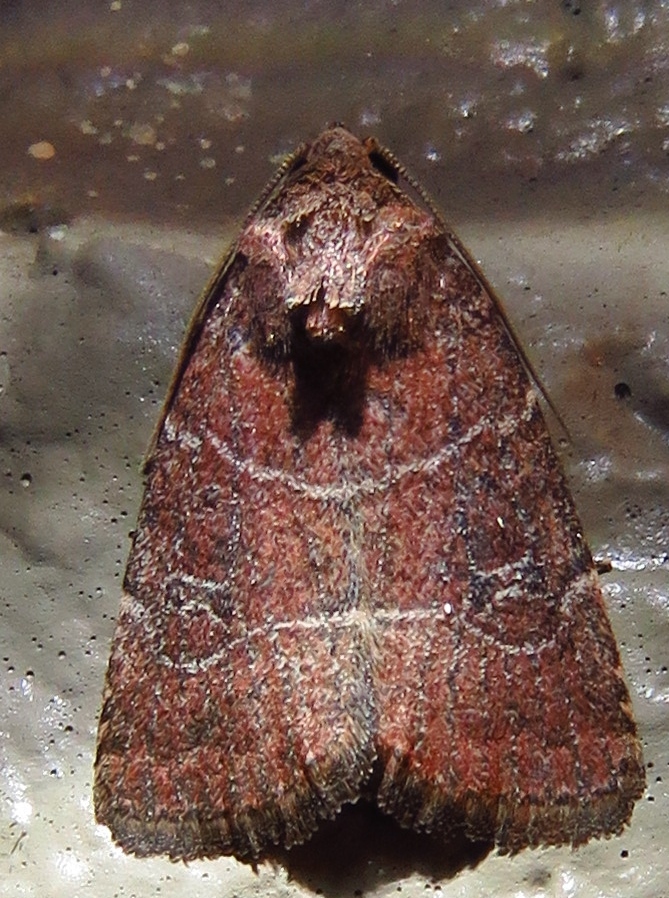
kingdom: Animalia
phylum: Arthropoda
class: Insecta
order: Lepidoptera
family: Noctuidae
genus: Elaphria
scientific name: Elaphria grata
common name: Grateful midget moth
